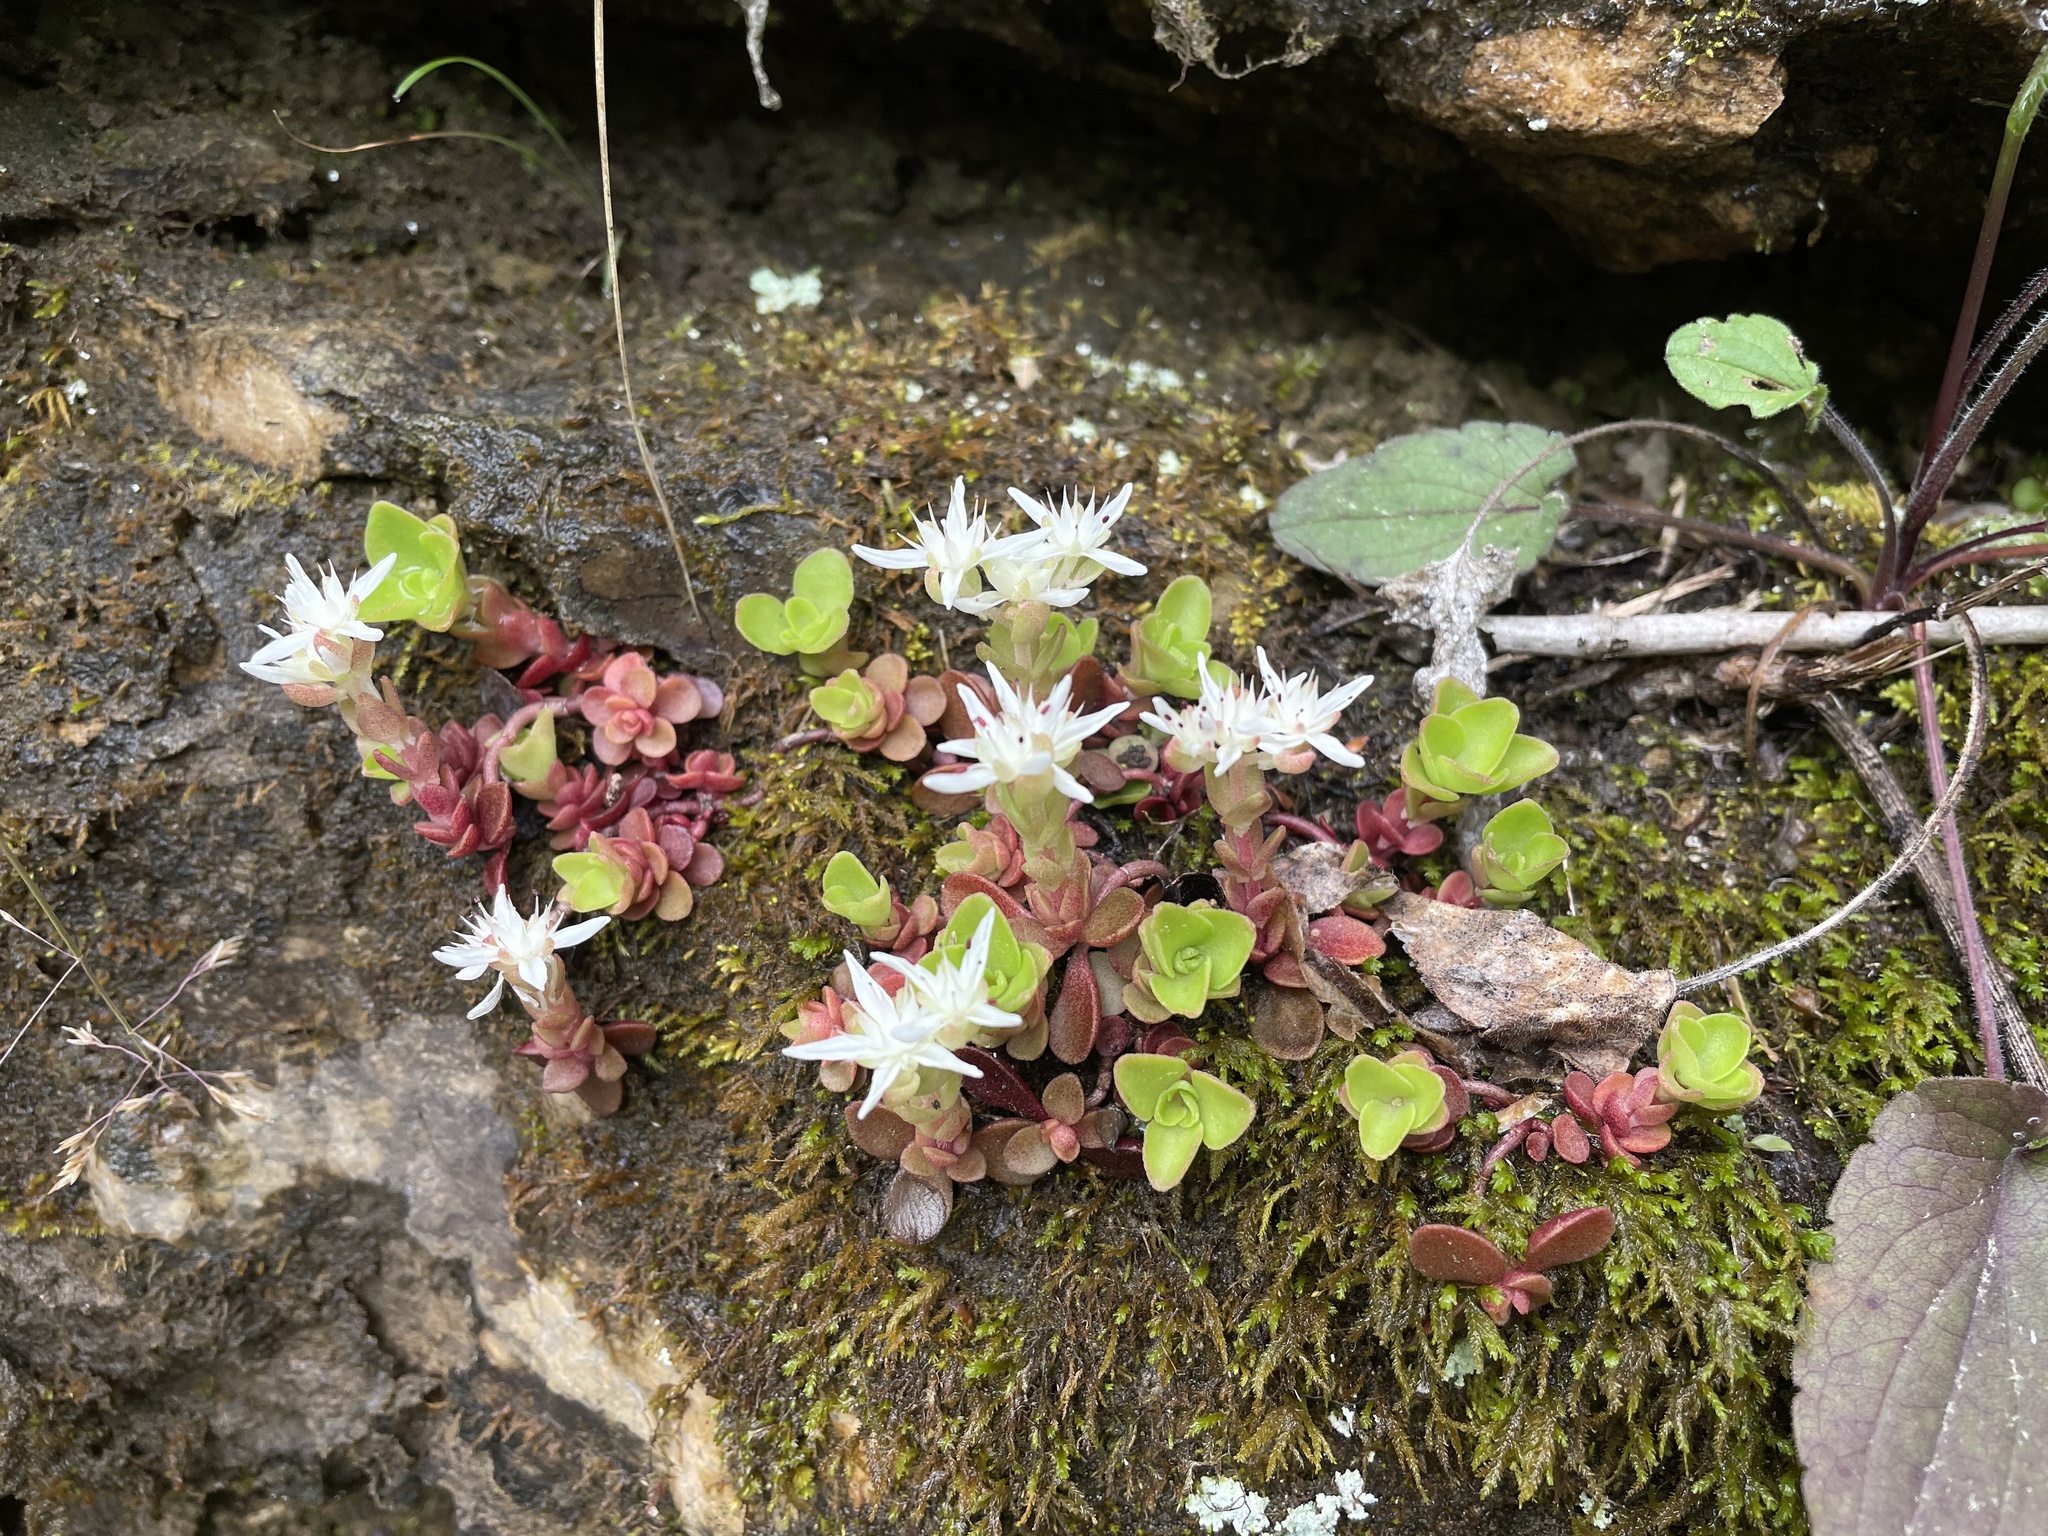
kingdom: Plantae
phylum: Tracheophyta
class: Magnoliopsida
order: Saxifragales
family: Crassulaceae
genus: Sedum
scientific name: Sedum ternatum
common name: Wild stonecrop
